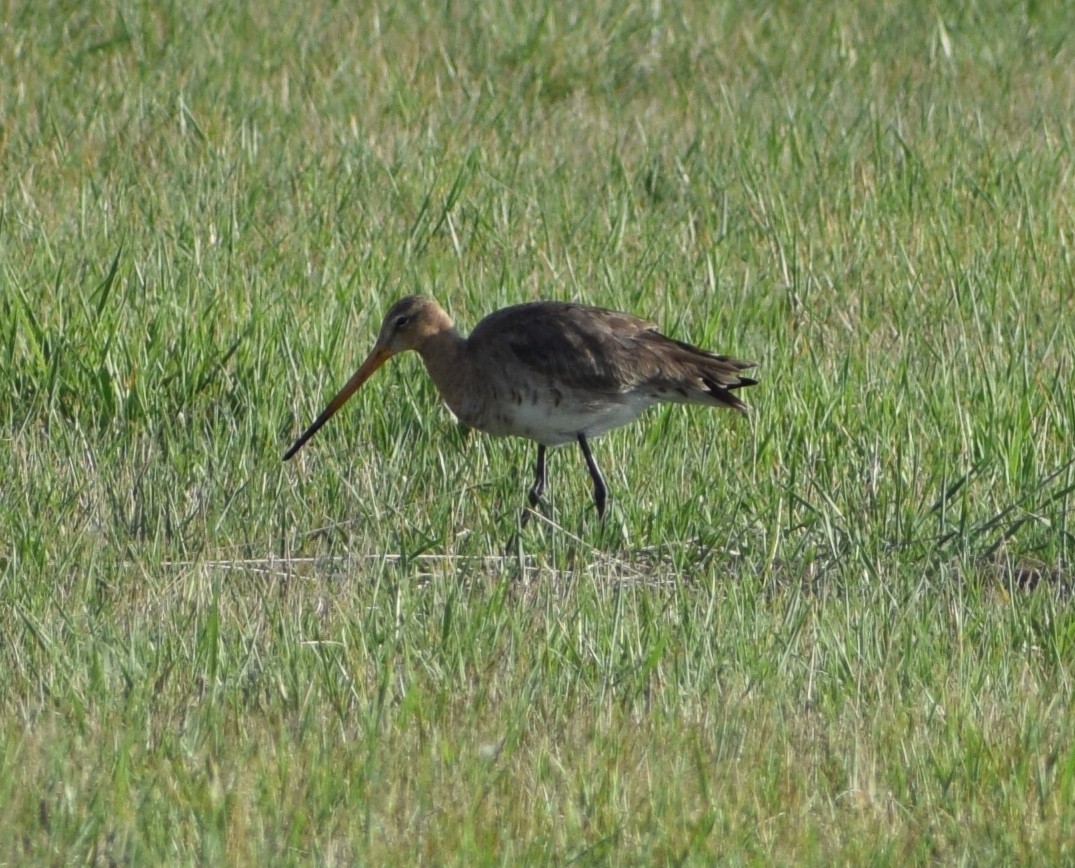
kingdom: Animalia
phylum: Chordata
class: Aves
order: Charadriiformes
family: Scolopacidae
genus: Limosa
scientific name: Limosa limosa
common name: Black-tailed godwit
